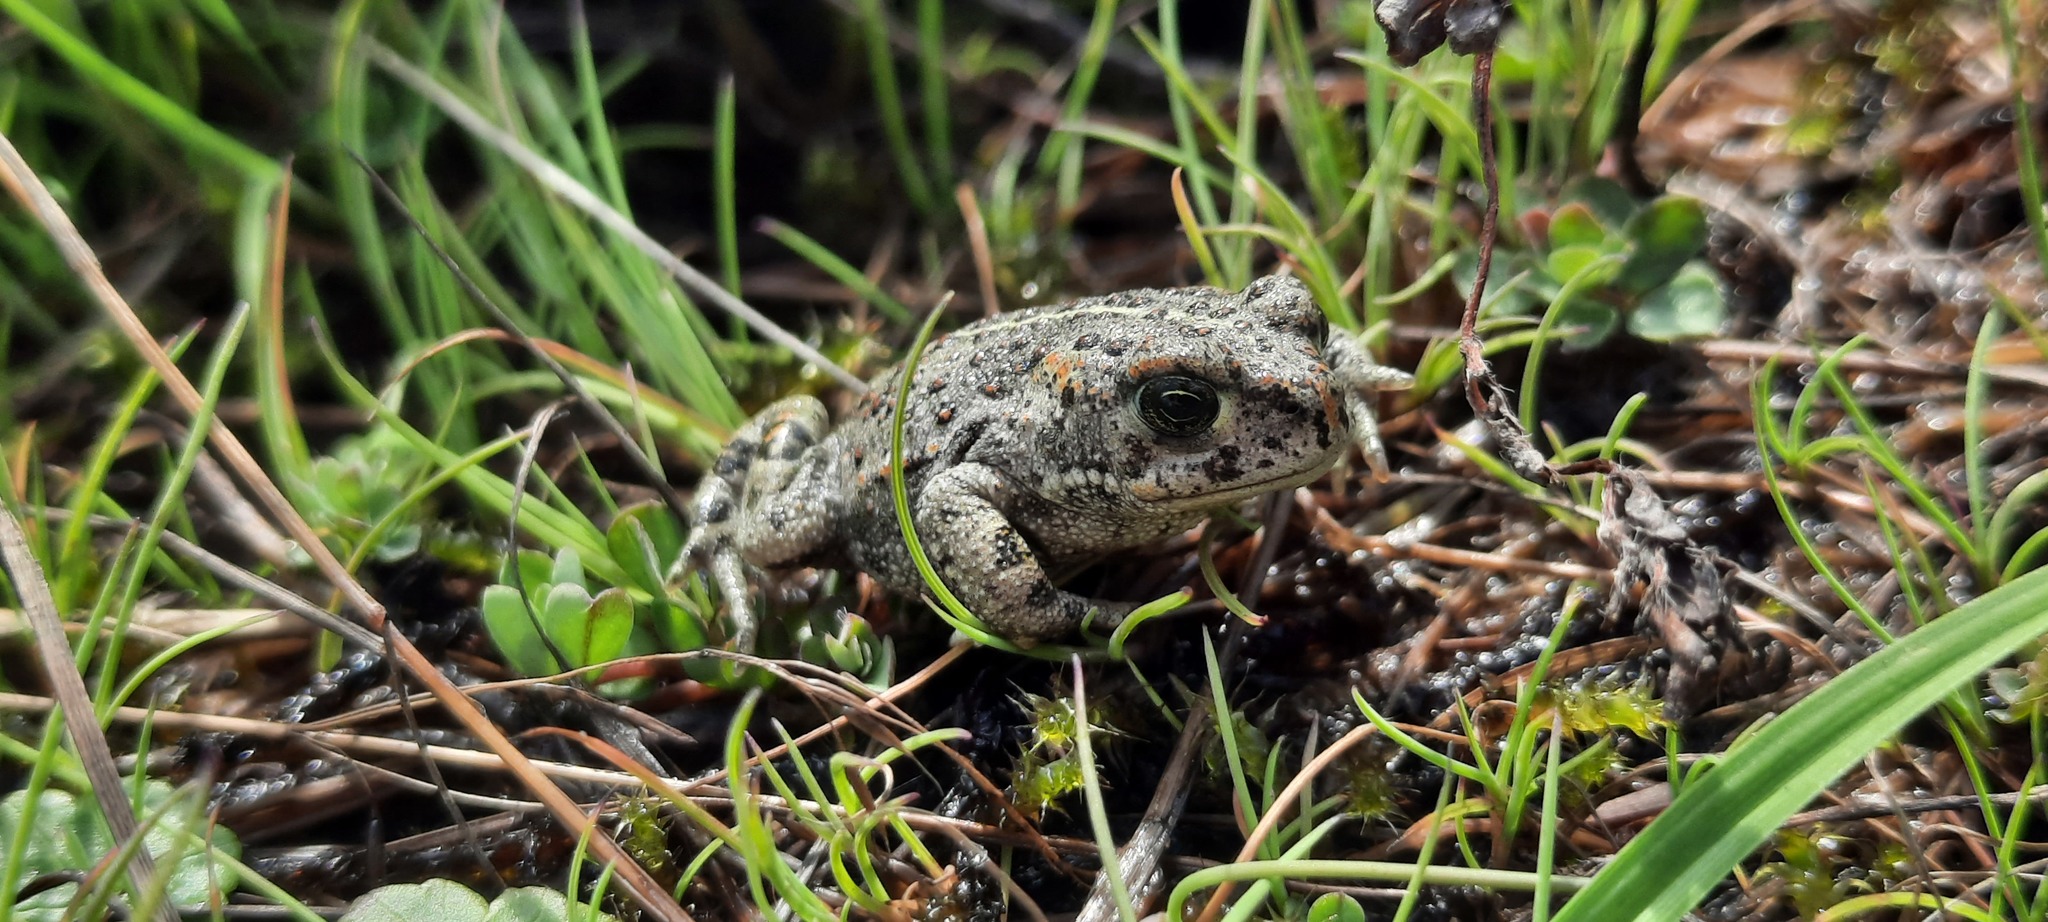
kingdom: Animalia
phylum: Chordata
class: Amphibia
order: Anura
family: Bufonidae
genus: Epidalea
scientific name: Epidalea calamita
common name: Natterjack toad
